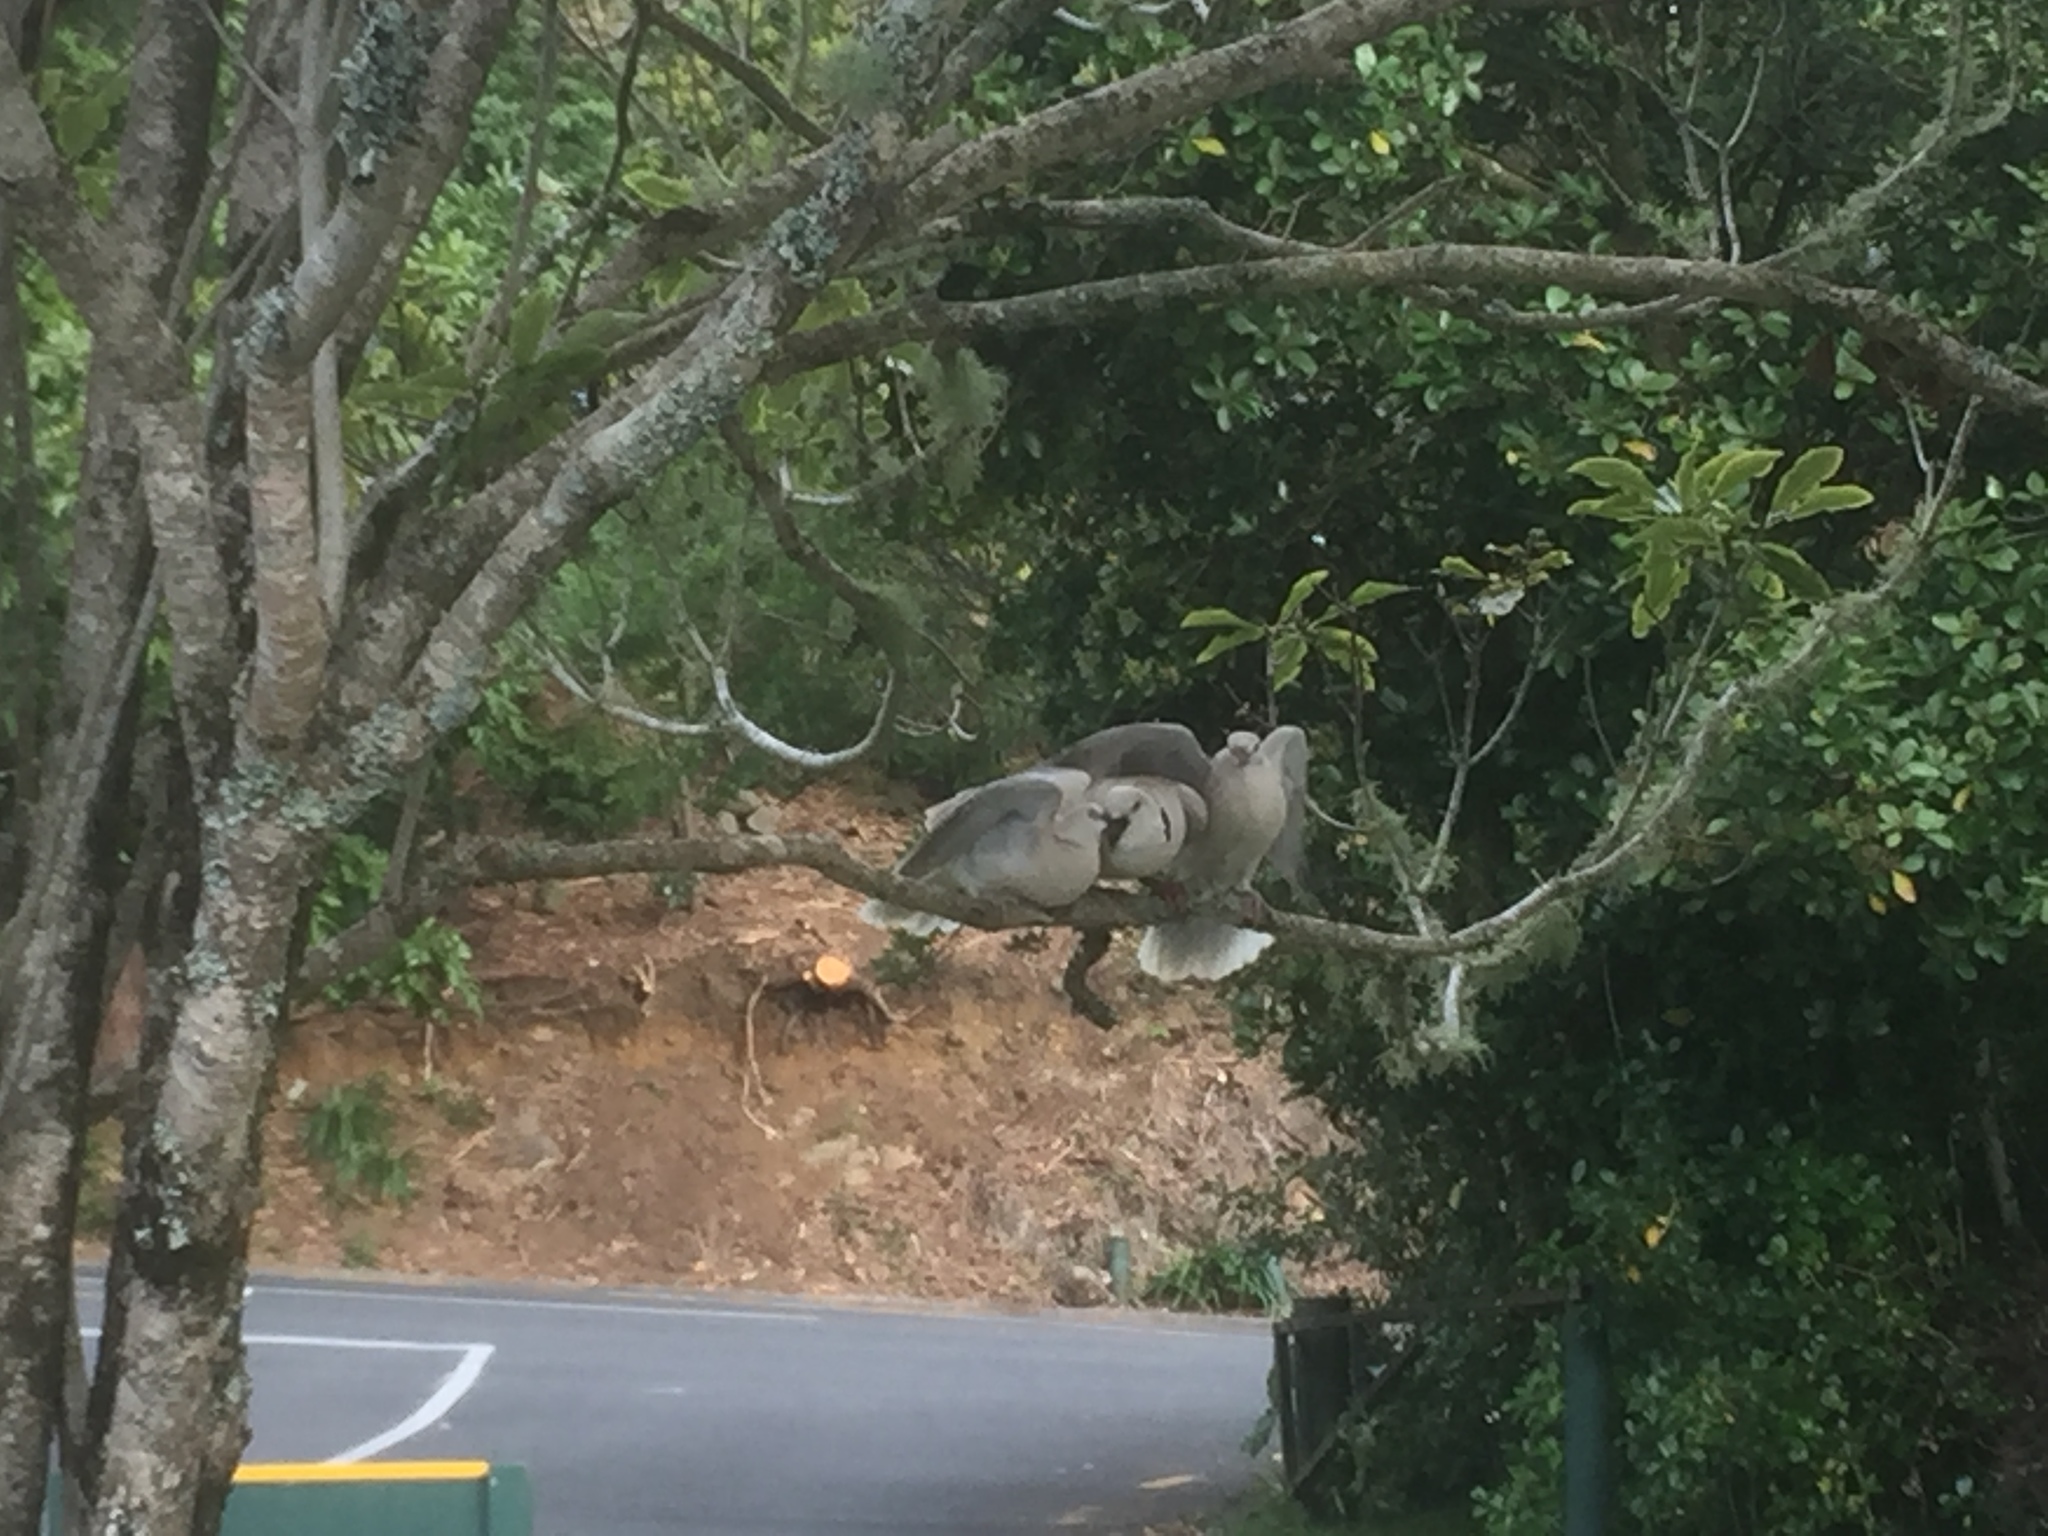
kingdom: Animalia
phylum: Chordata
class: Aves
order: Columbiformes
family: Columbidae
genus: Streptopelia
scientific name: Streptopelia roseogrisea
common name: African collared dove
